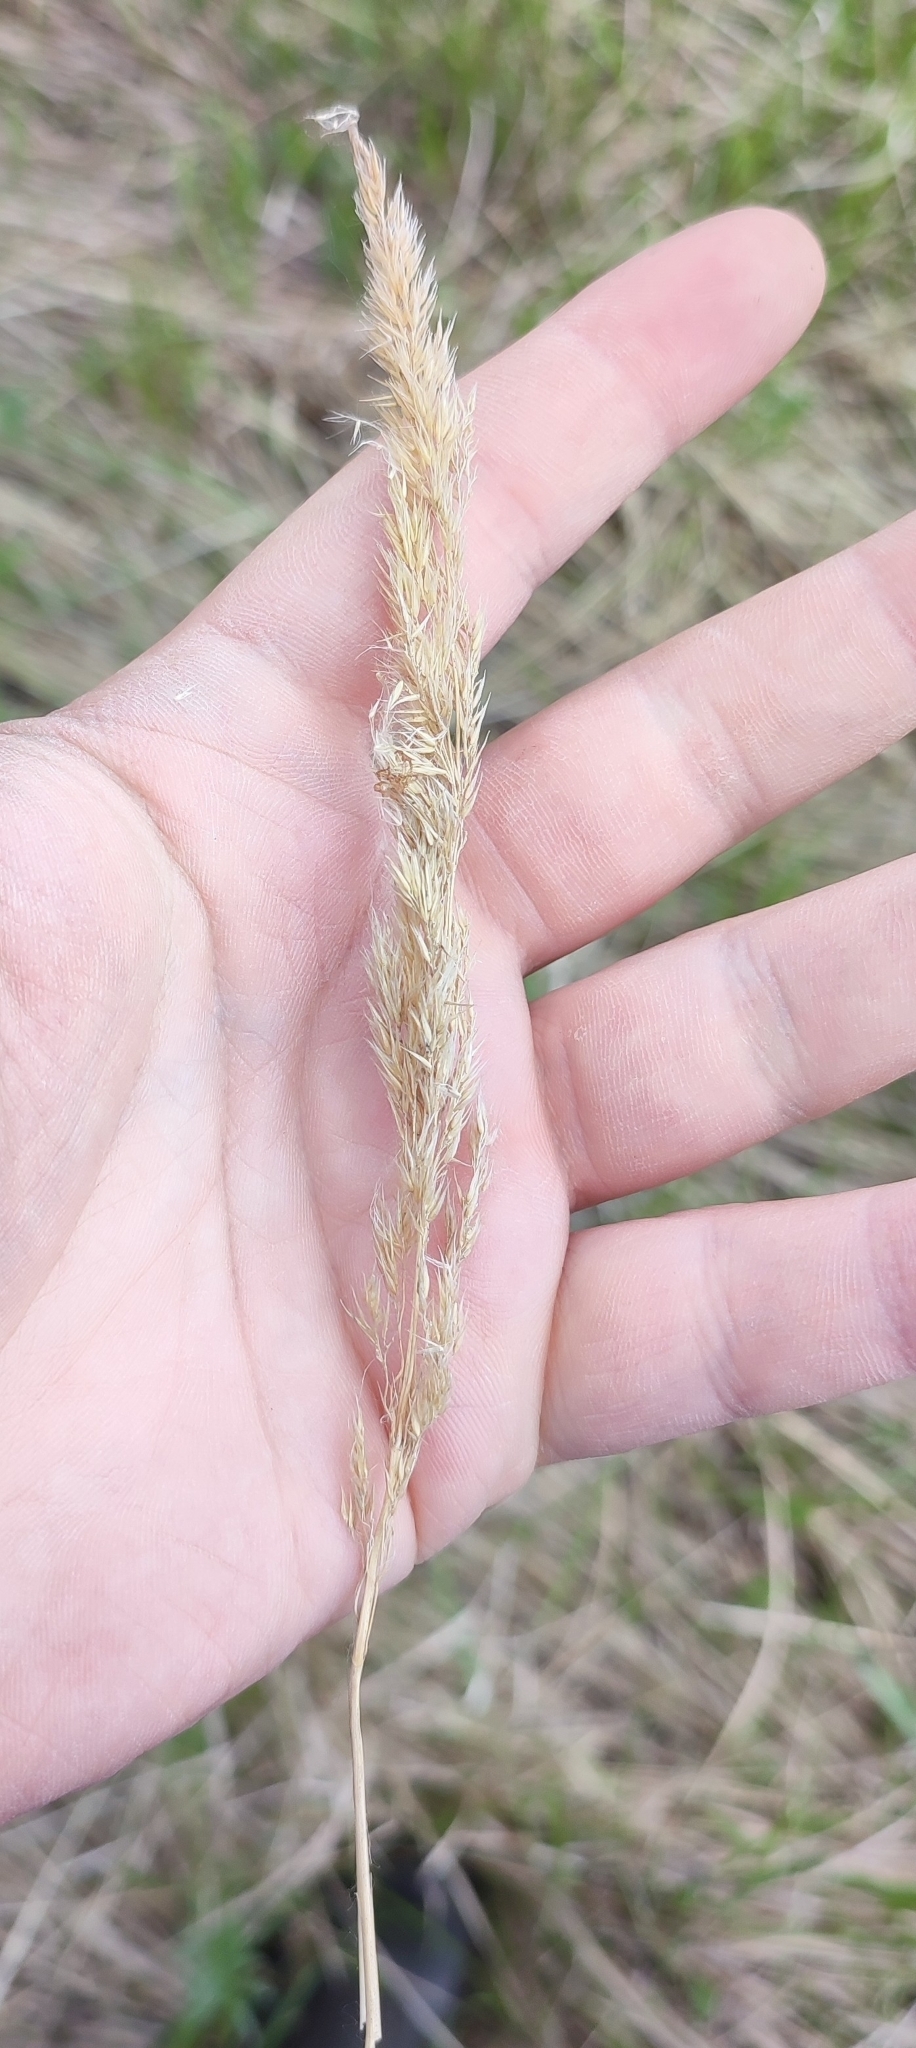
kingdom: Plantae
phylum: Tracheophyta
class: Liliopsida
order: Poales
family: Poaceae
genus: Calamagrostis
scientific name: Calamagrostis epigejos
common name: Wood small-reed
